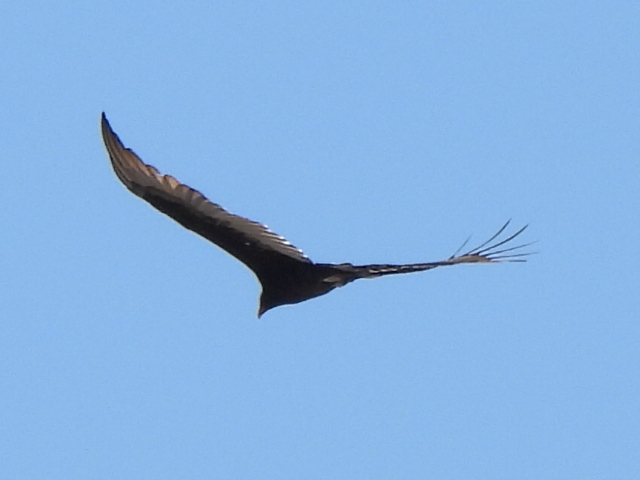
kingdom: Animalia
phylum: Chordata
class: Aves
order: Accipitriformes
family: Cathartidae
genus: Cathartes
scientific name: Cathartes aura
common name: Turkey vulture
